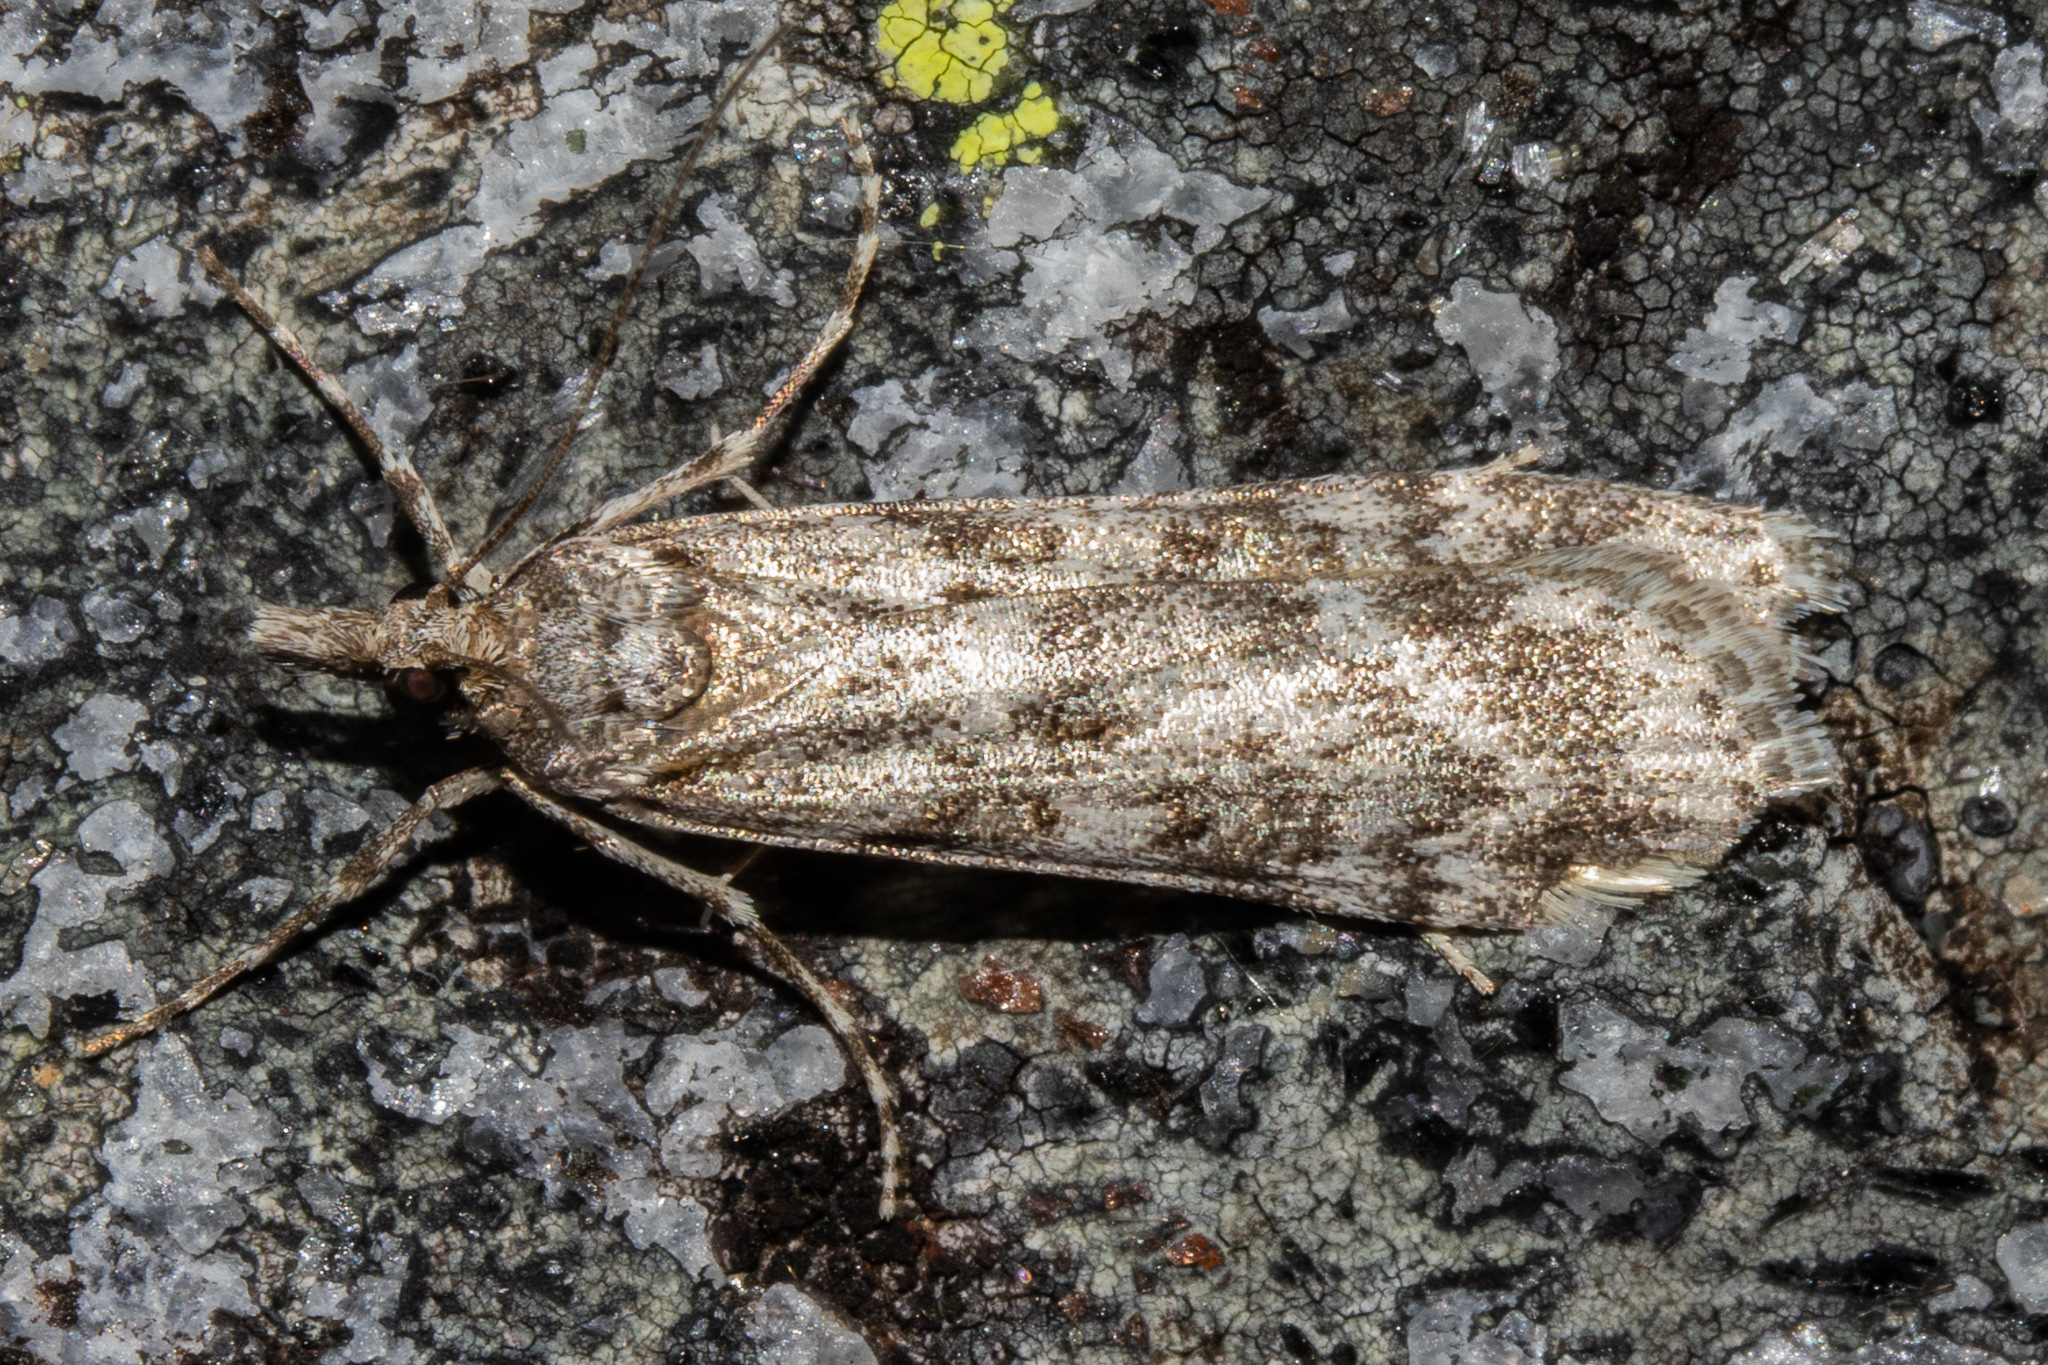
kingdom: Animalia
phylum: Arthropoda
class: Insecta
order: Lepidoptera
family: Crambidae
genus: Scoparia
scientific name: Scoparia halopis
